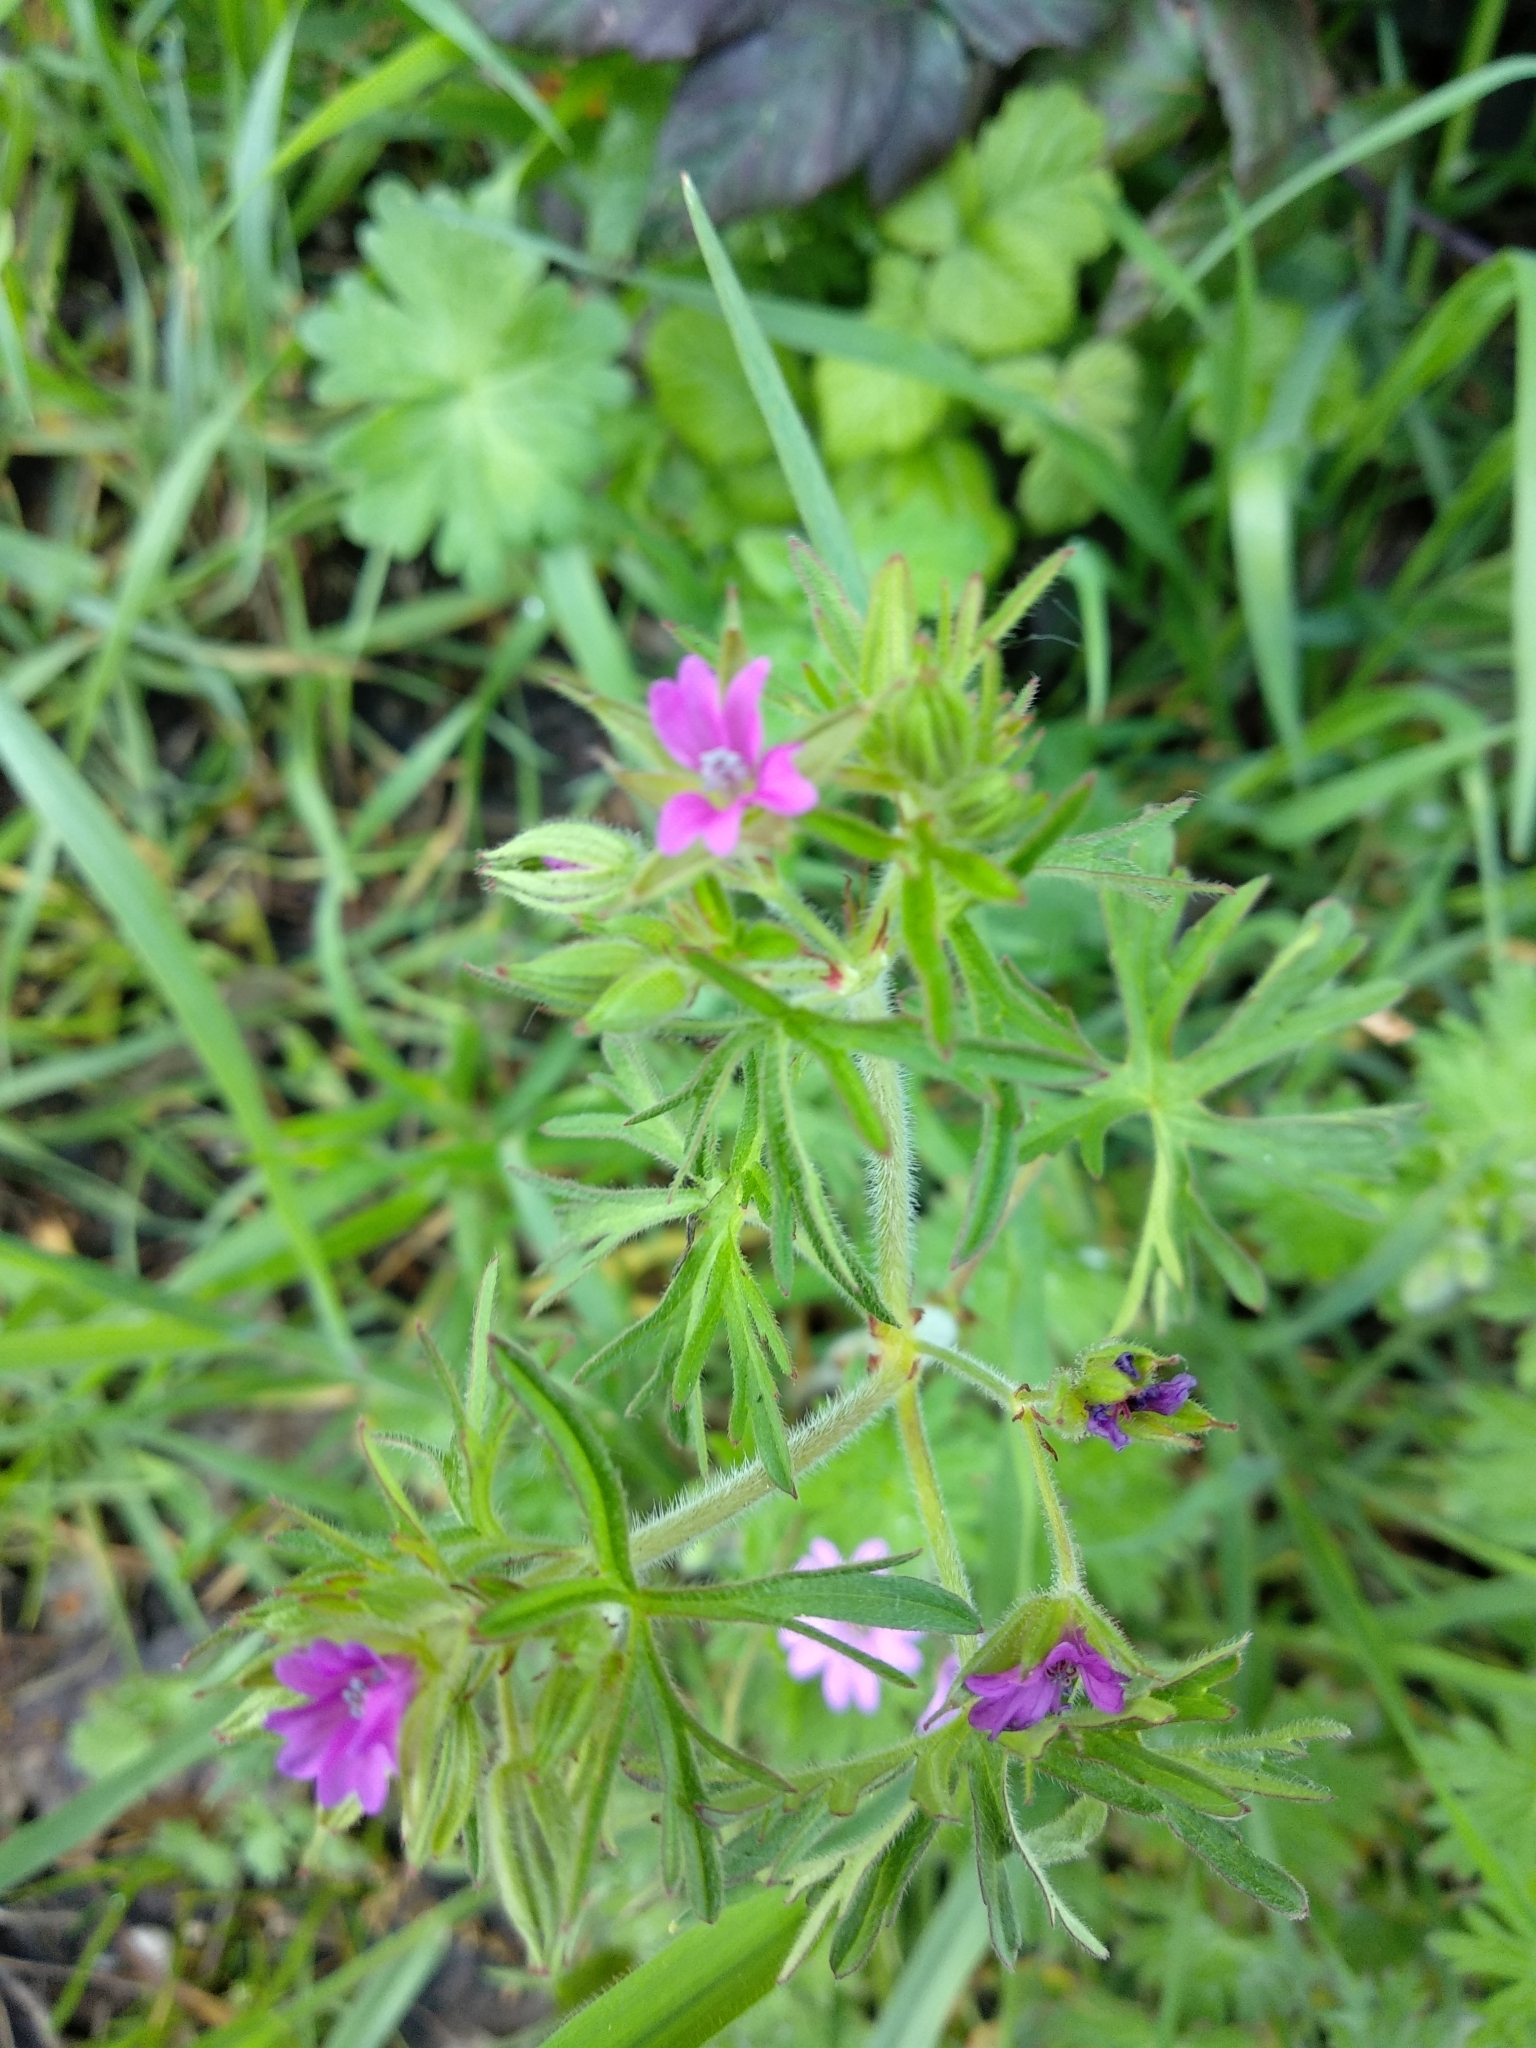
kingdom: Plantae
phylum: Tracheophyta
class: Magnoliopsida
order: Geraniales
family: Geraniaceae
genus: Geranium
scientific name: Geranium dissectum
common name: Cut-leaved crane's-bill
